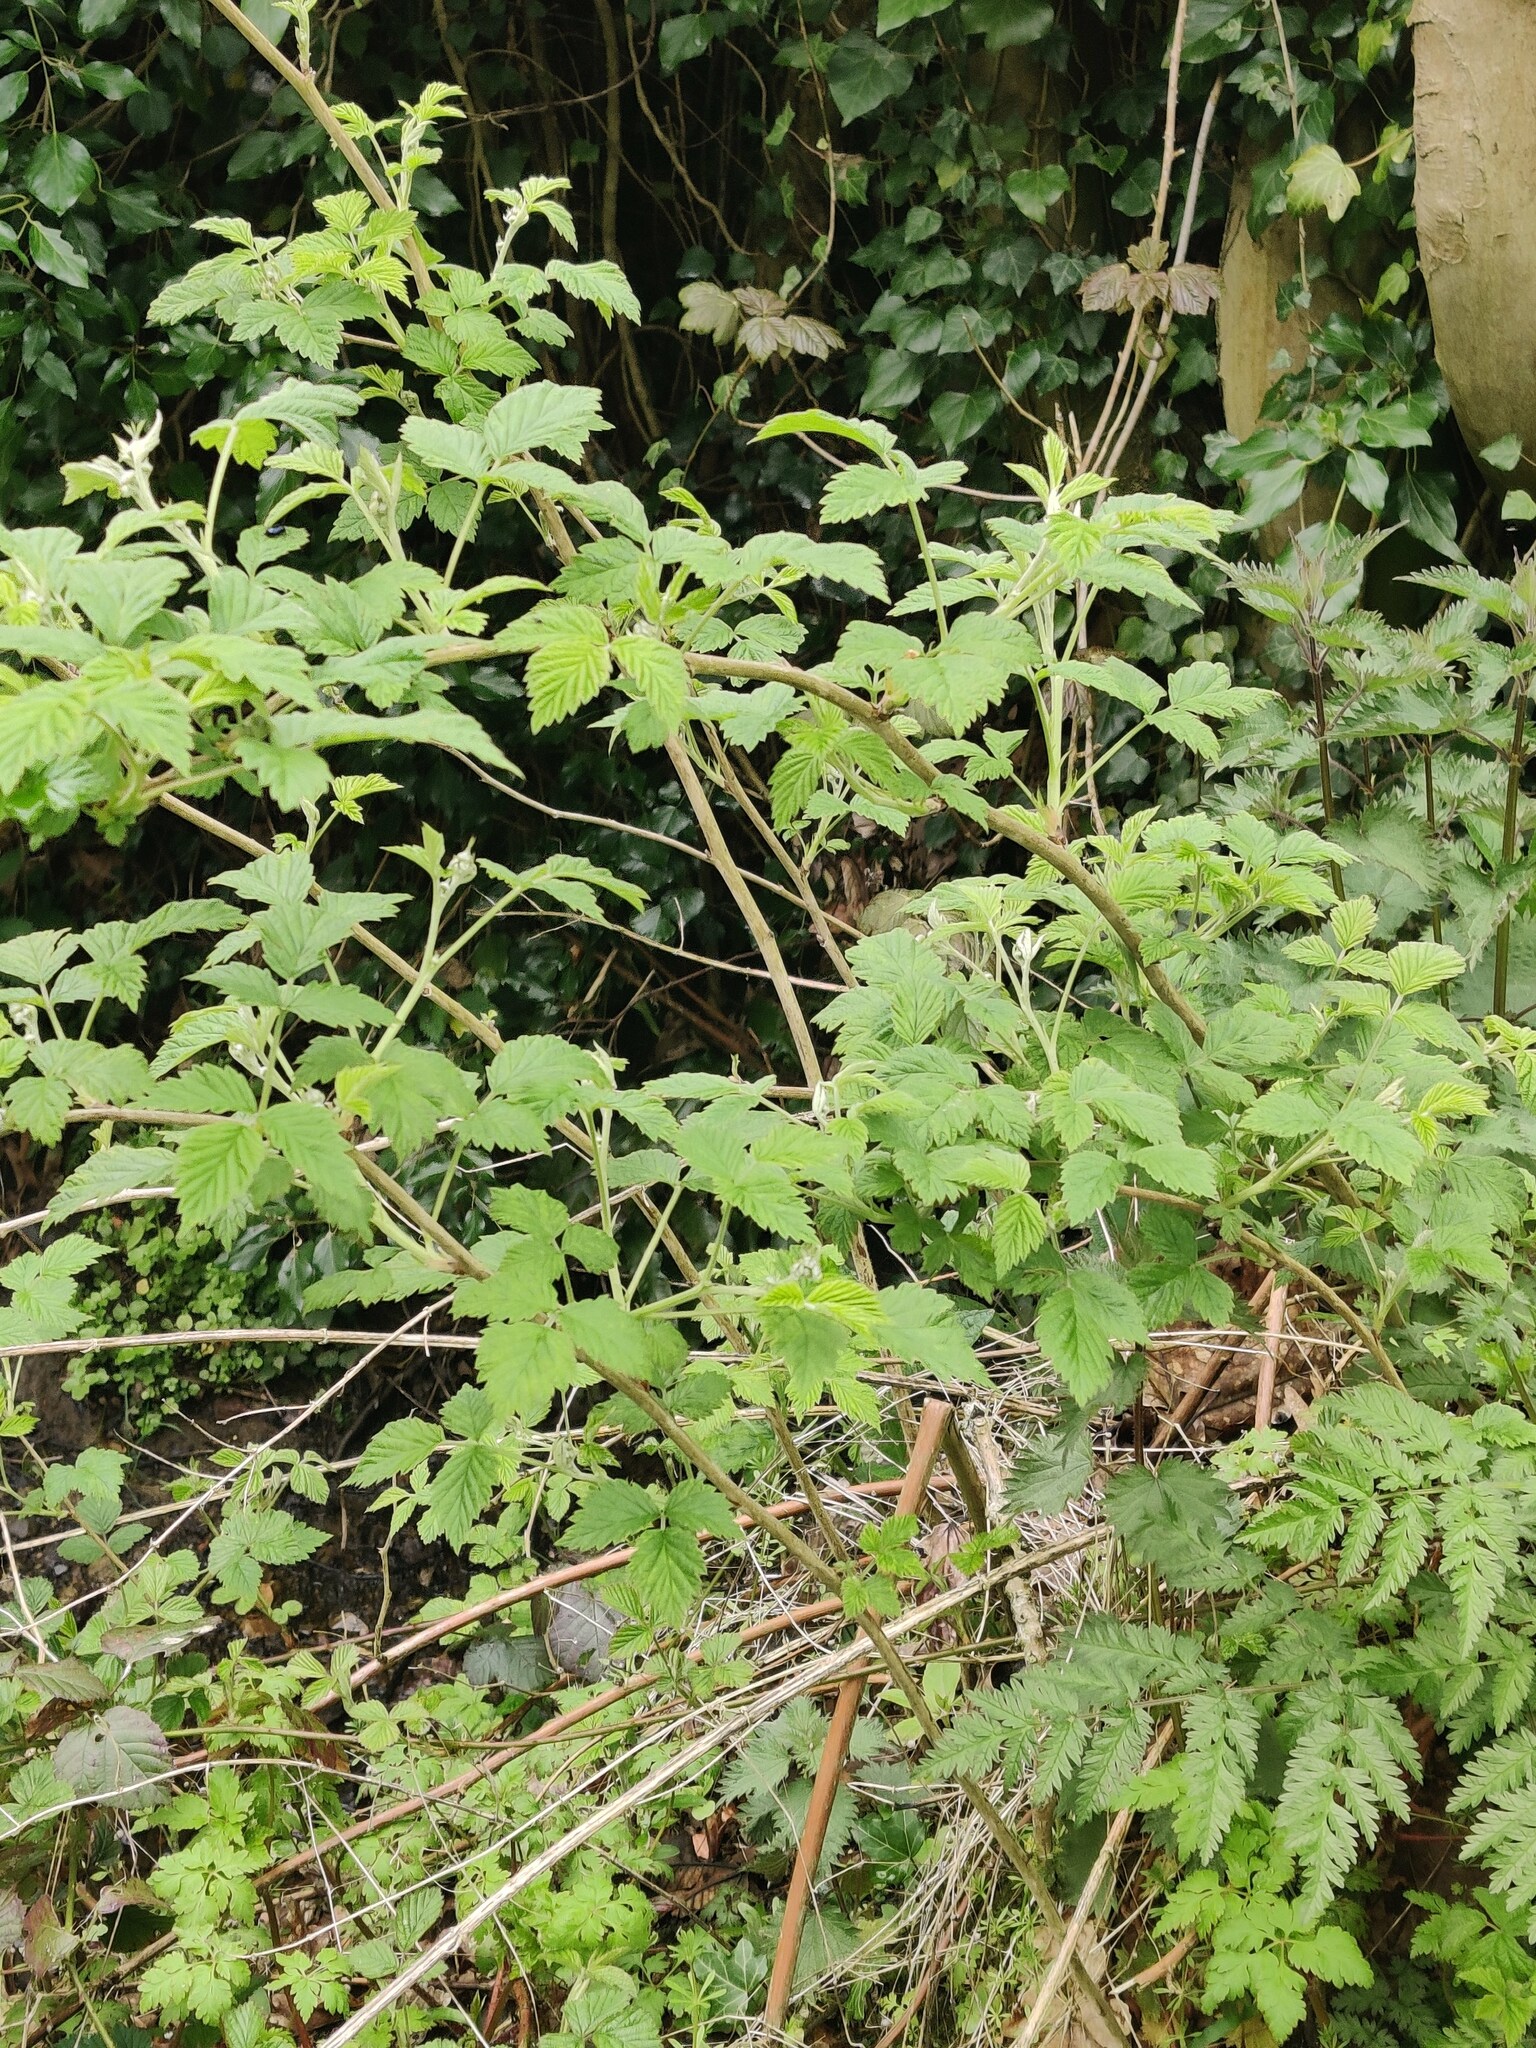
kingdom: Plantae
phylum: Tracheophyta
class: Magnoliopsida
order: Rosales
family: Rosaceae
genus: Rubus
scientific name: Rubus idaeus
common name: Raspberry
